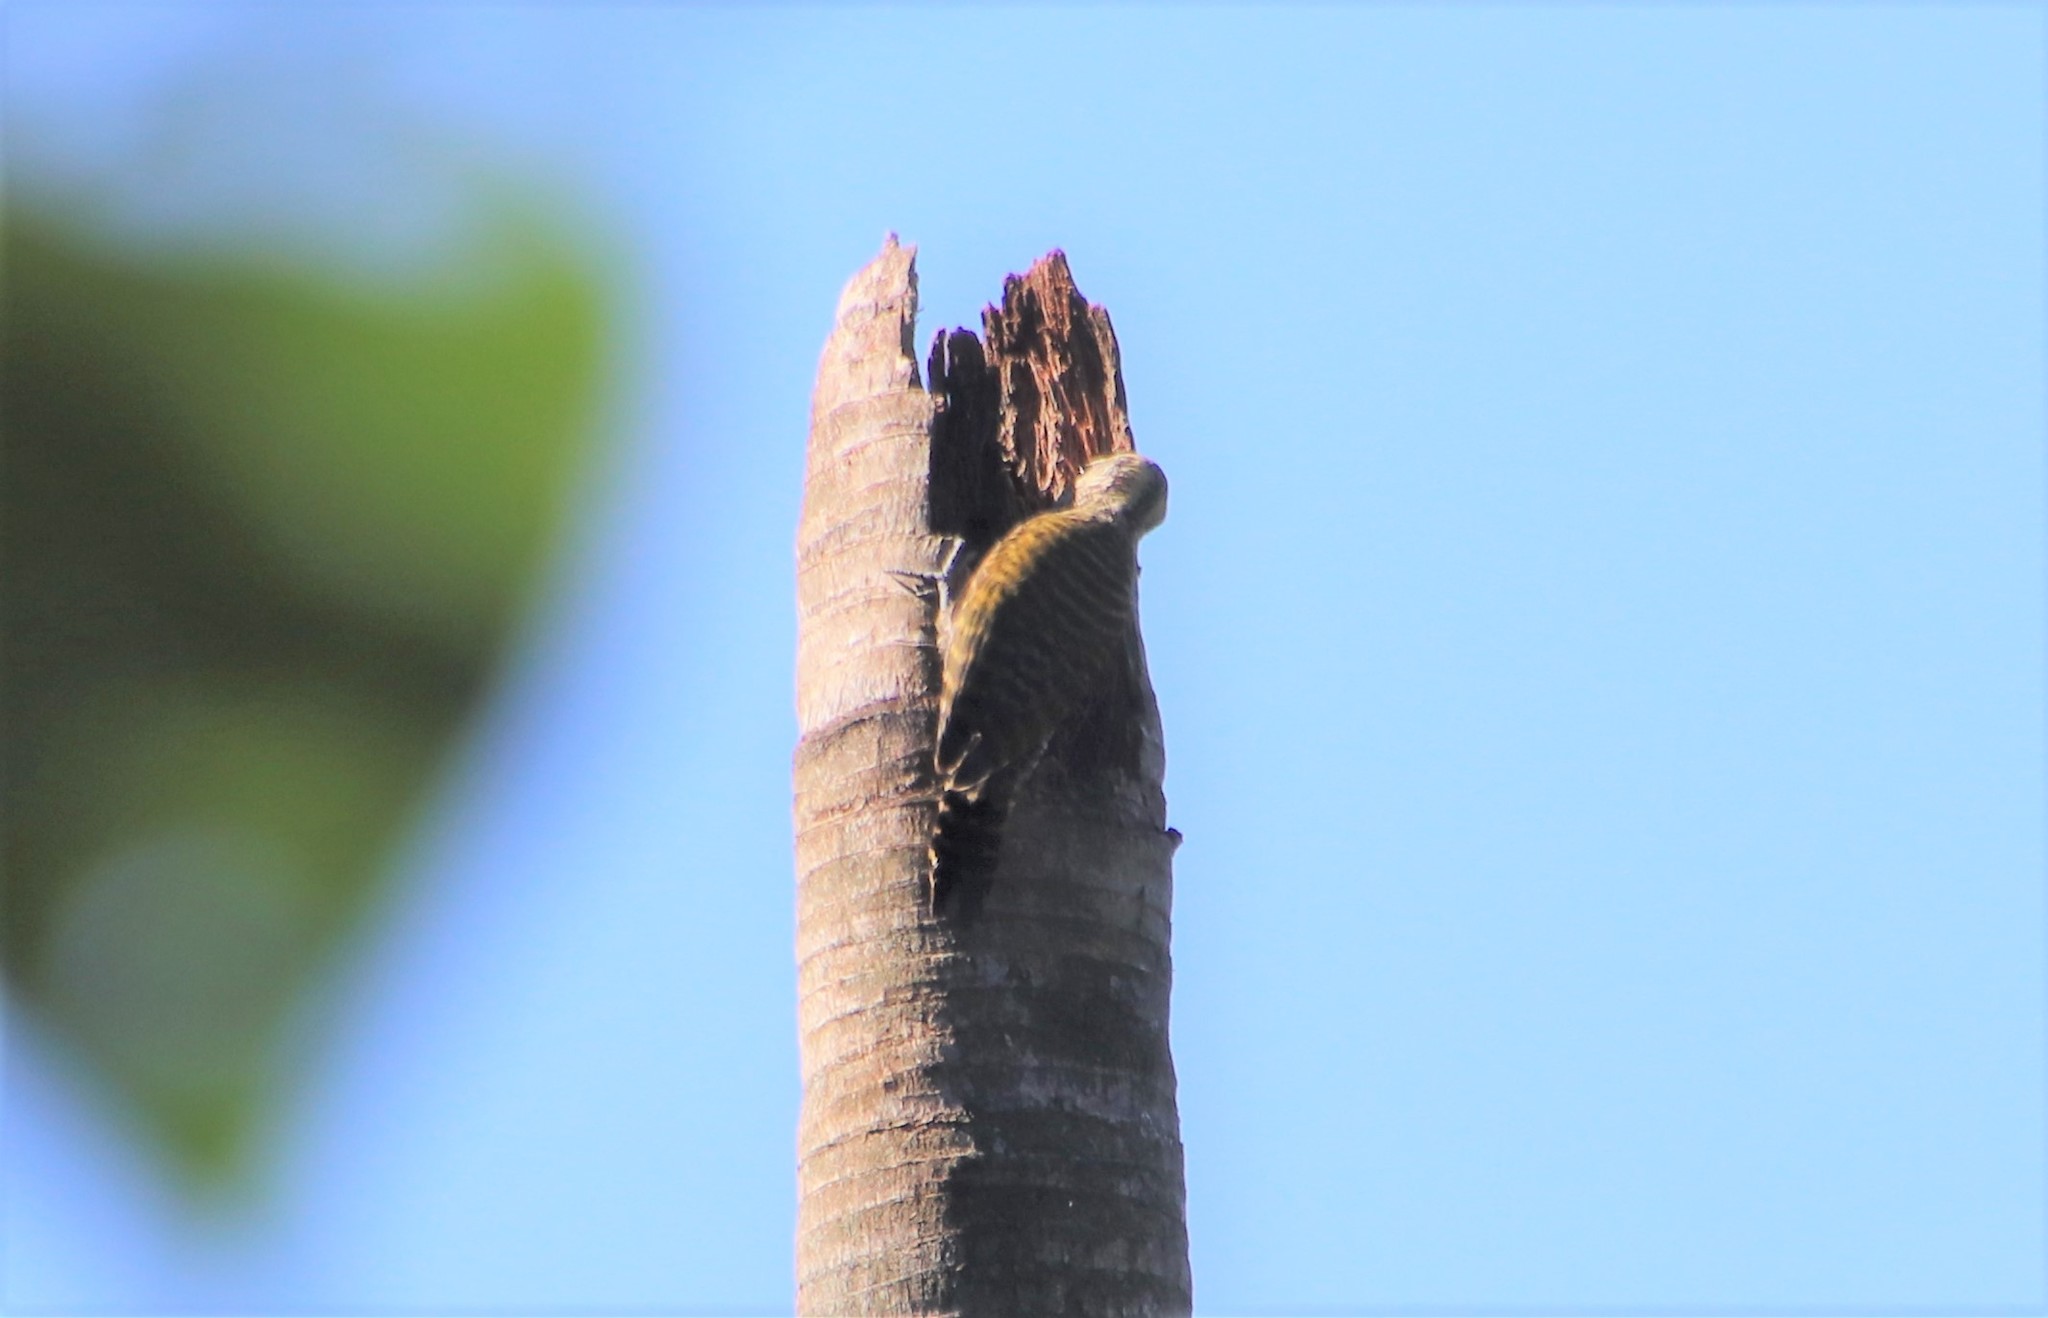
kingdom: Animalia
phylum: Chordata
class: Aves
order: Piciformes
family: Picidae
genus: Veniliornis
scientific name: Veniliornis spilogaster
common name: White-spotted woodpecker
